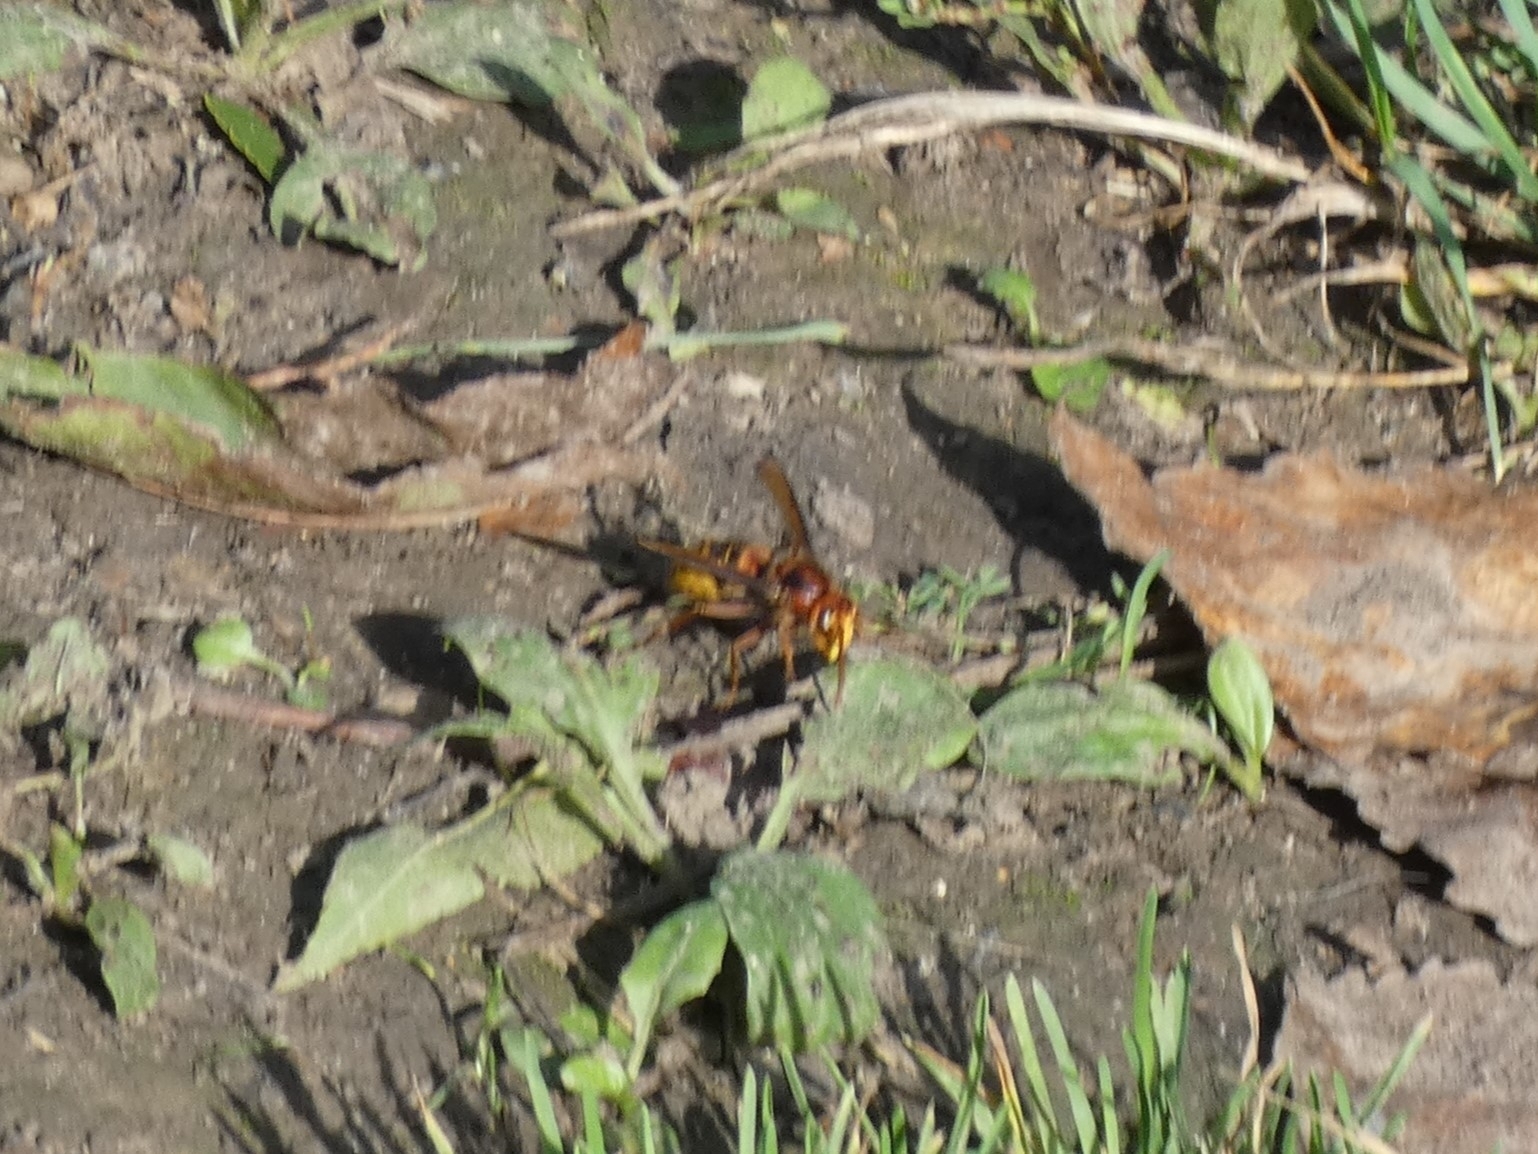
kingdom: Animalia
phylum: Arthropoda
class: Insecta
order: Hymenoptera
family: Vespidae
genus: Vespa
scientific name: Vespa crabro
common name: Hornet
